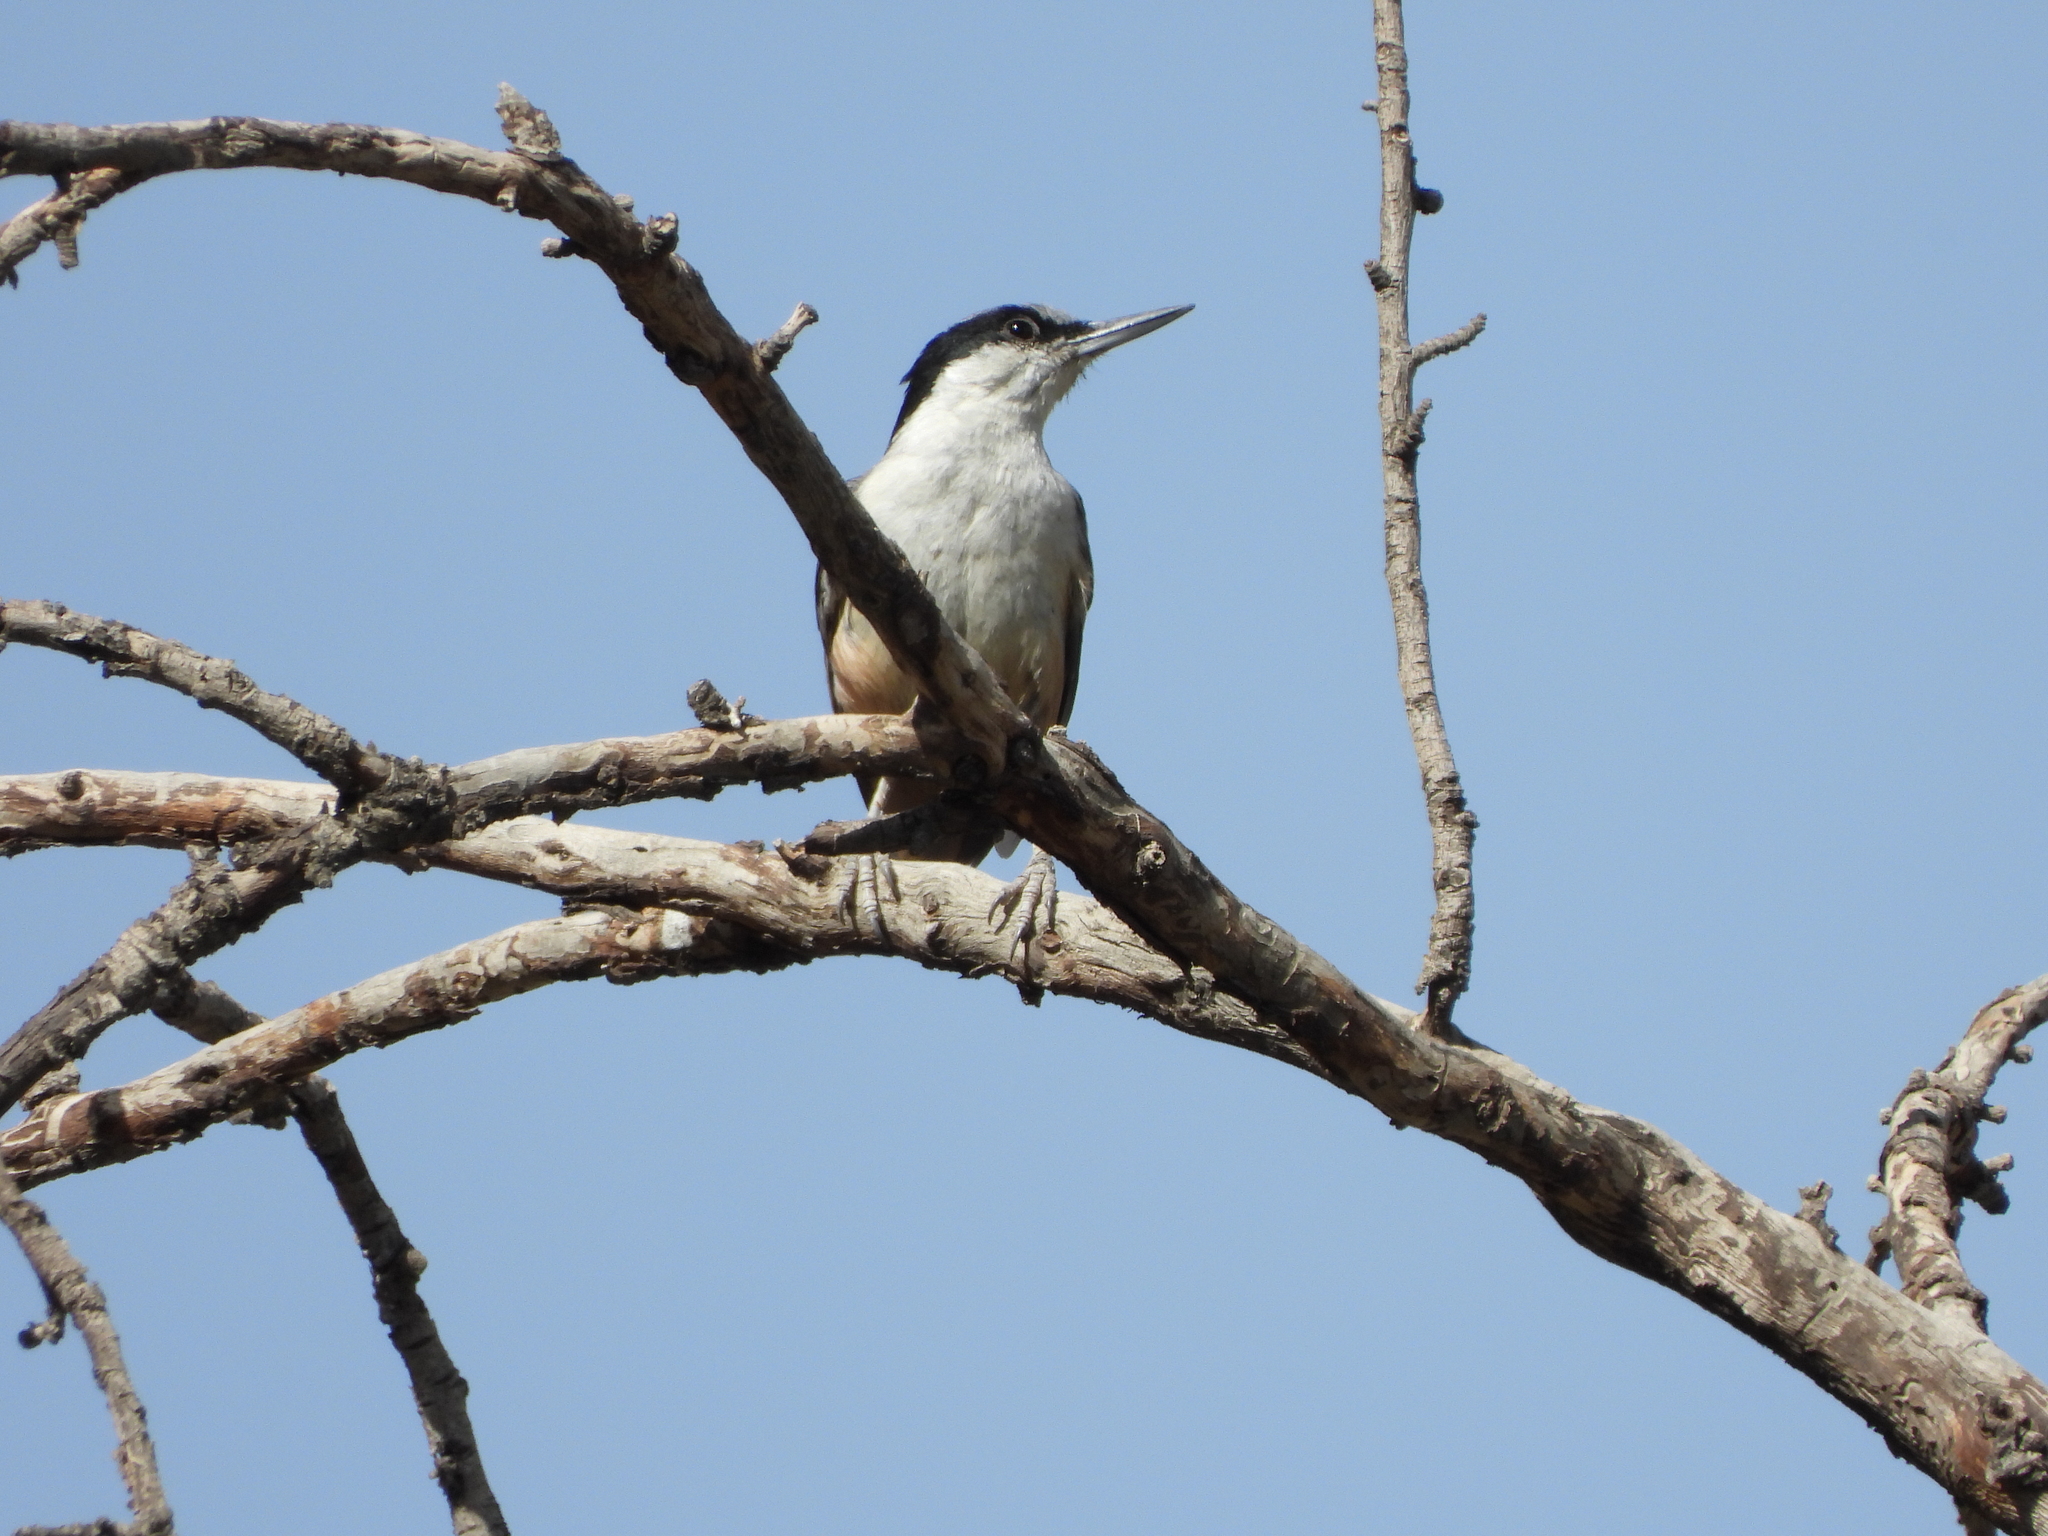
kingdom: Animalia
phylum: Chordata
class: Aves
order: Passeriformes
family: Sittidae
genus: Sitta
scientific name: Sitta tephronota
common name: Eastern rock nuthatch
